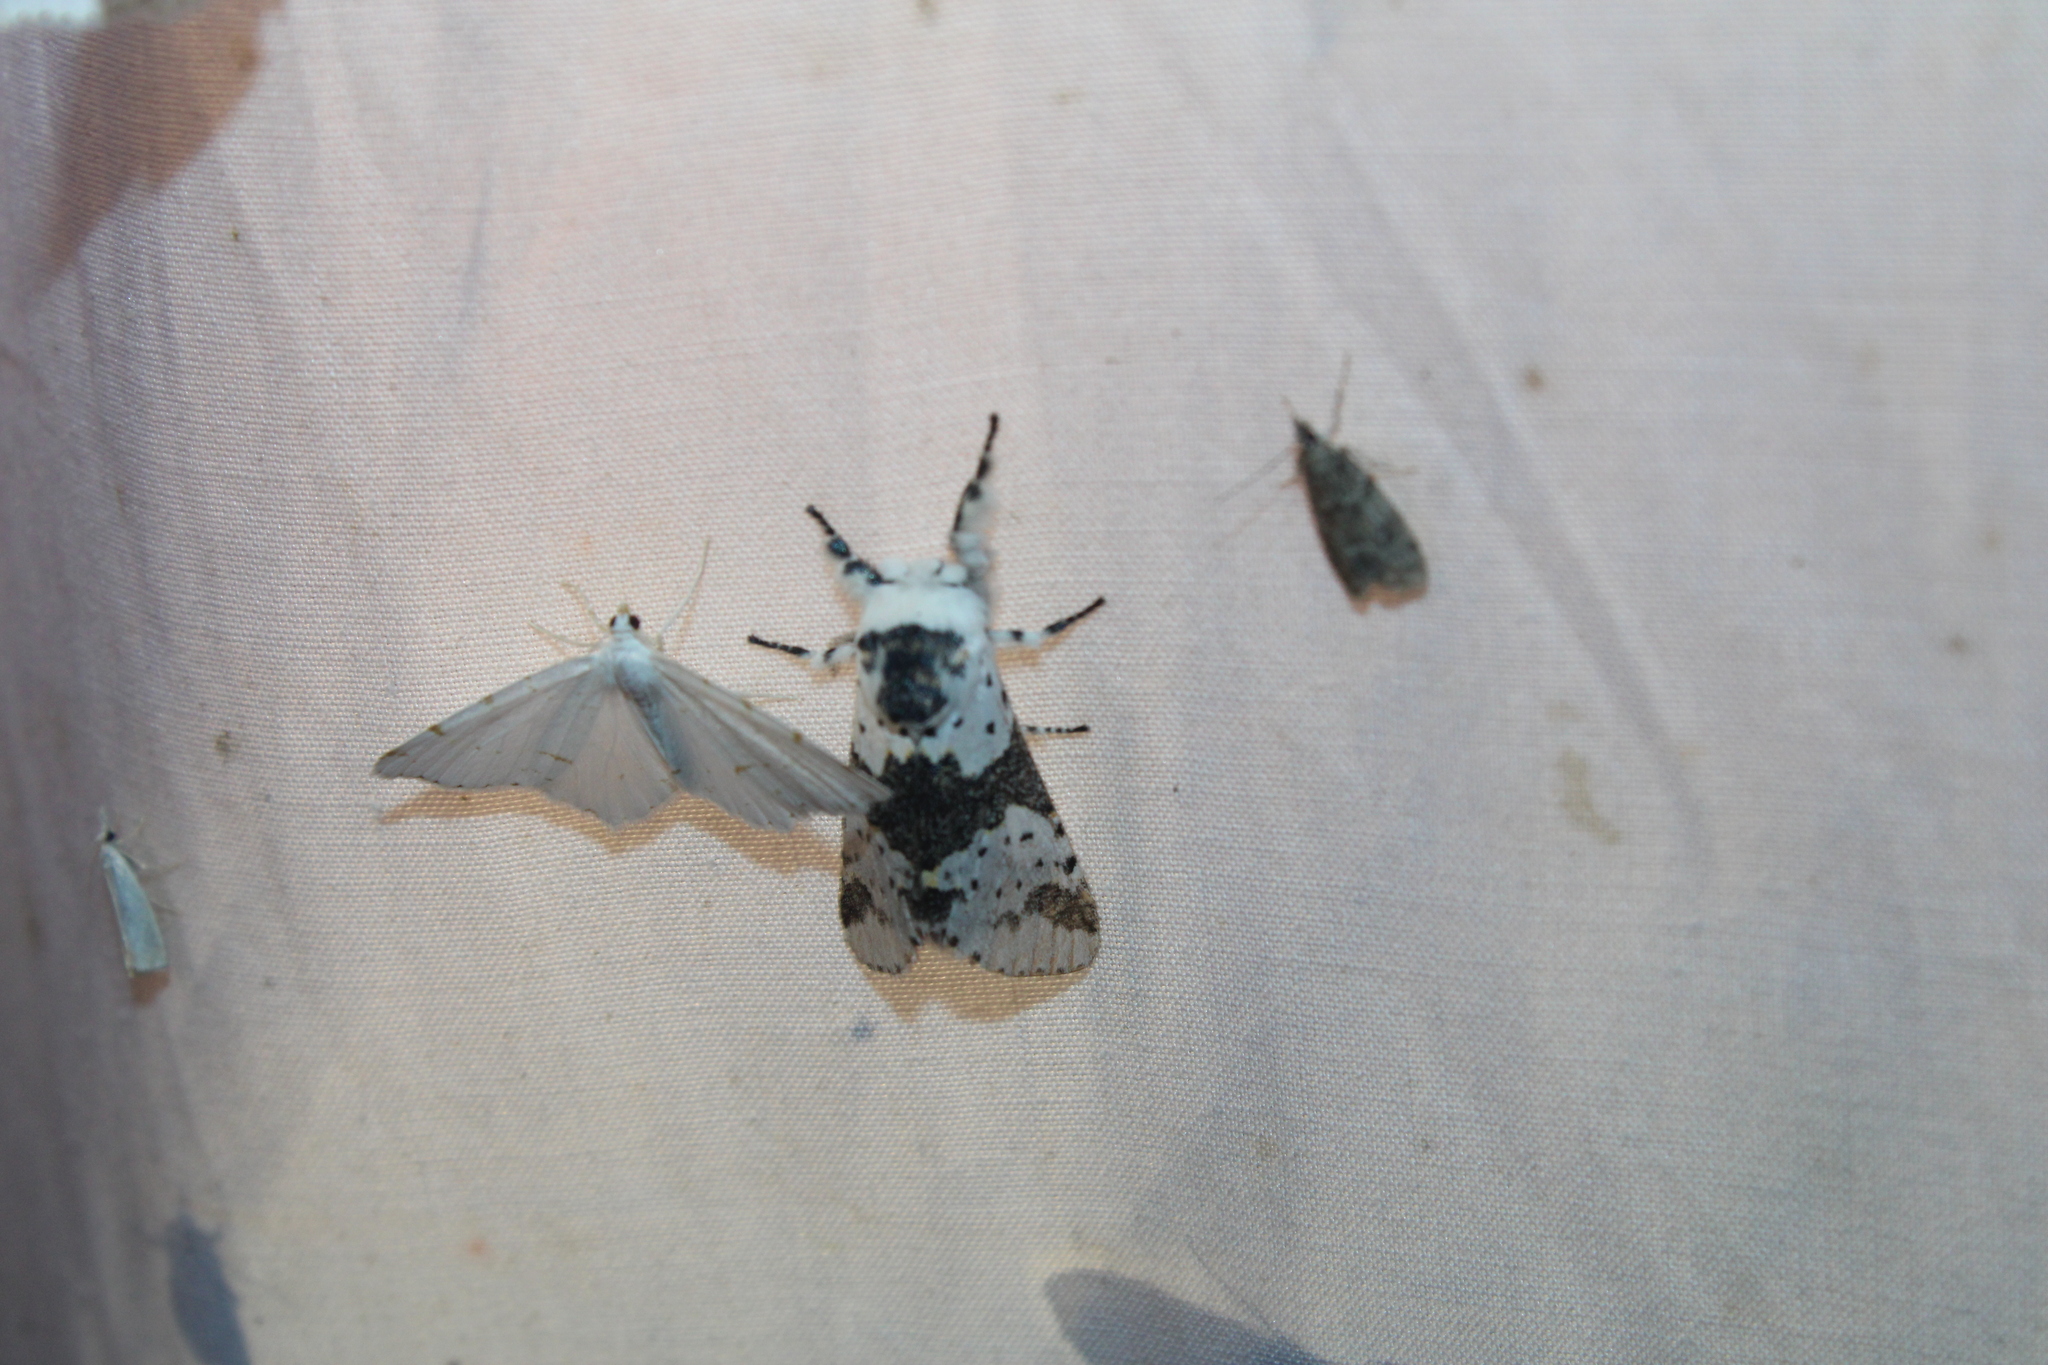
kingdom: Animalia
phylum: Arthropoda
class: Insecta
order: Lepidoptera
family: Notodontidae
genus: Furcula
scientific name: Furcula borealis
